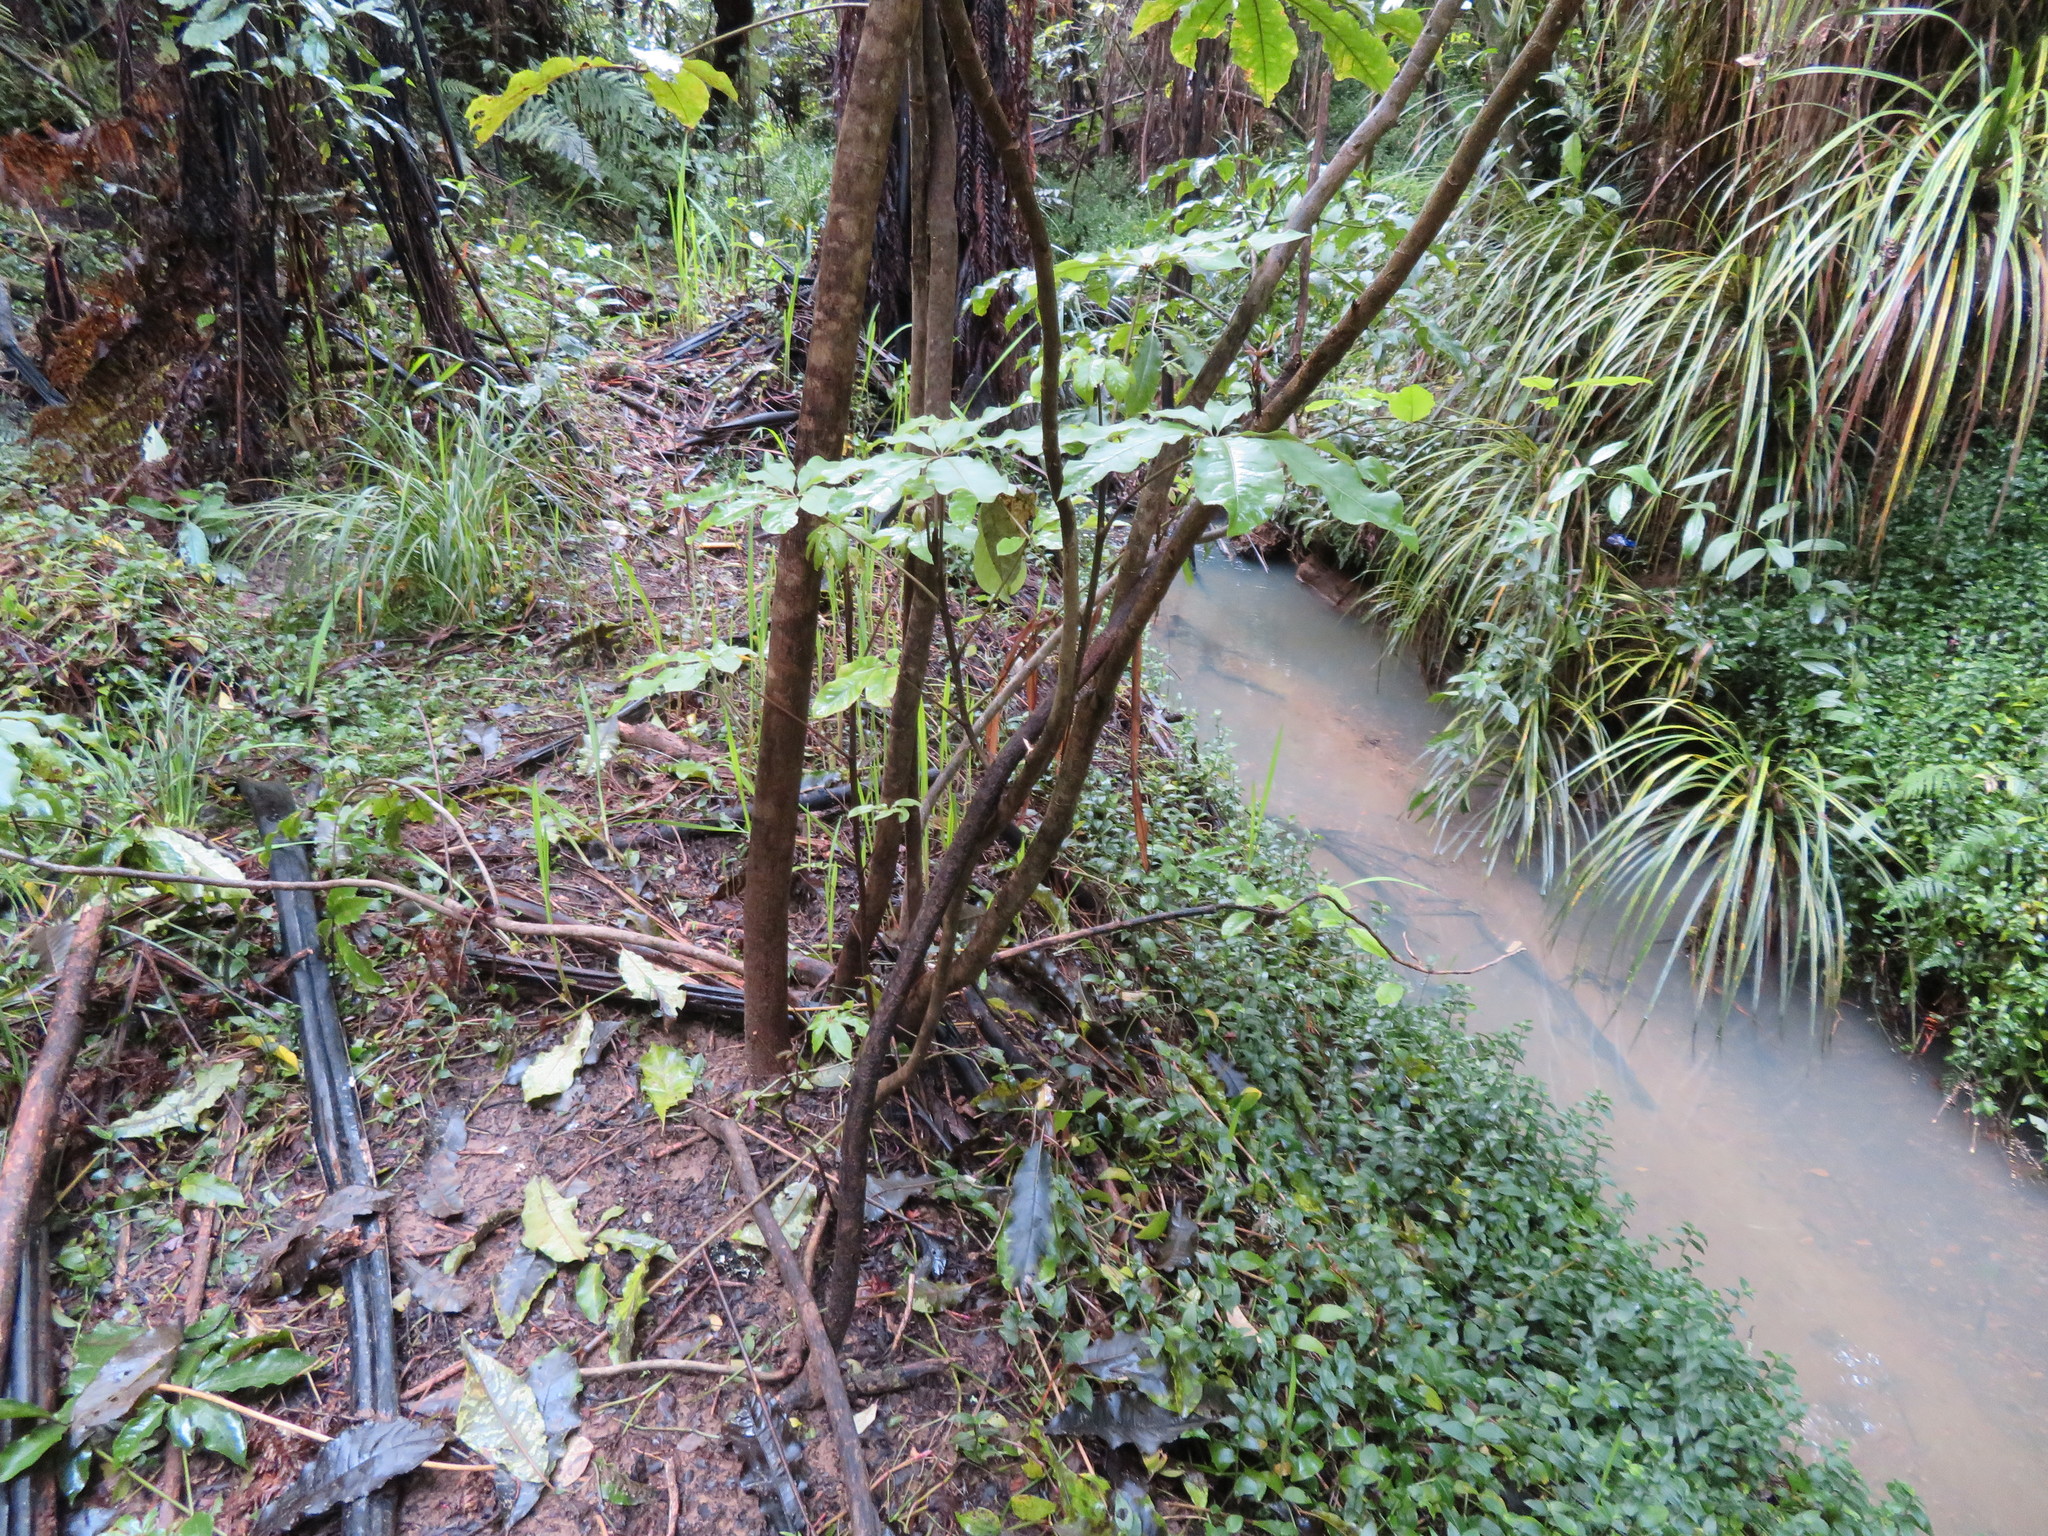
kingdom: Plantae
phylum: Tracheophyta
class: Magnoliopsida
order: Apiales
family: Araliaceae
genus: Schefflera
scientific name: Schefflera digitata
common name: Pate
